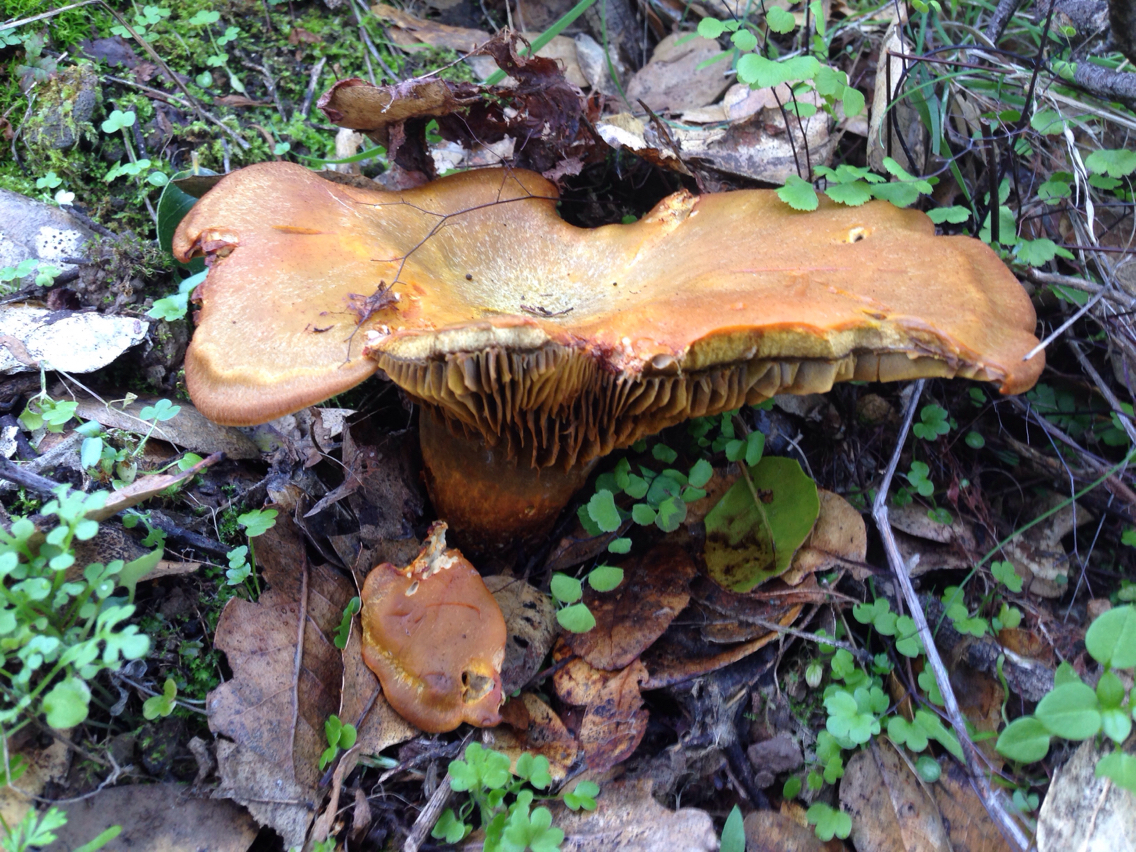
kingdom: Fungi
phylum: Basidiomycota
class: Agaricomycetes
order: Agaricales
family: Omphalotaceae
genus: Omphalotus
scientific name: Omphalotus olivascens
